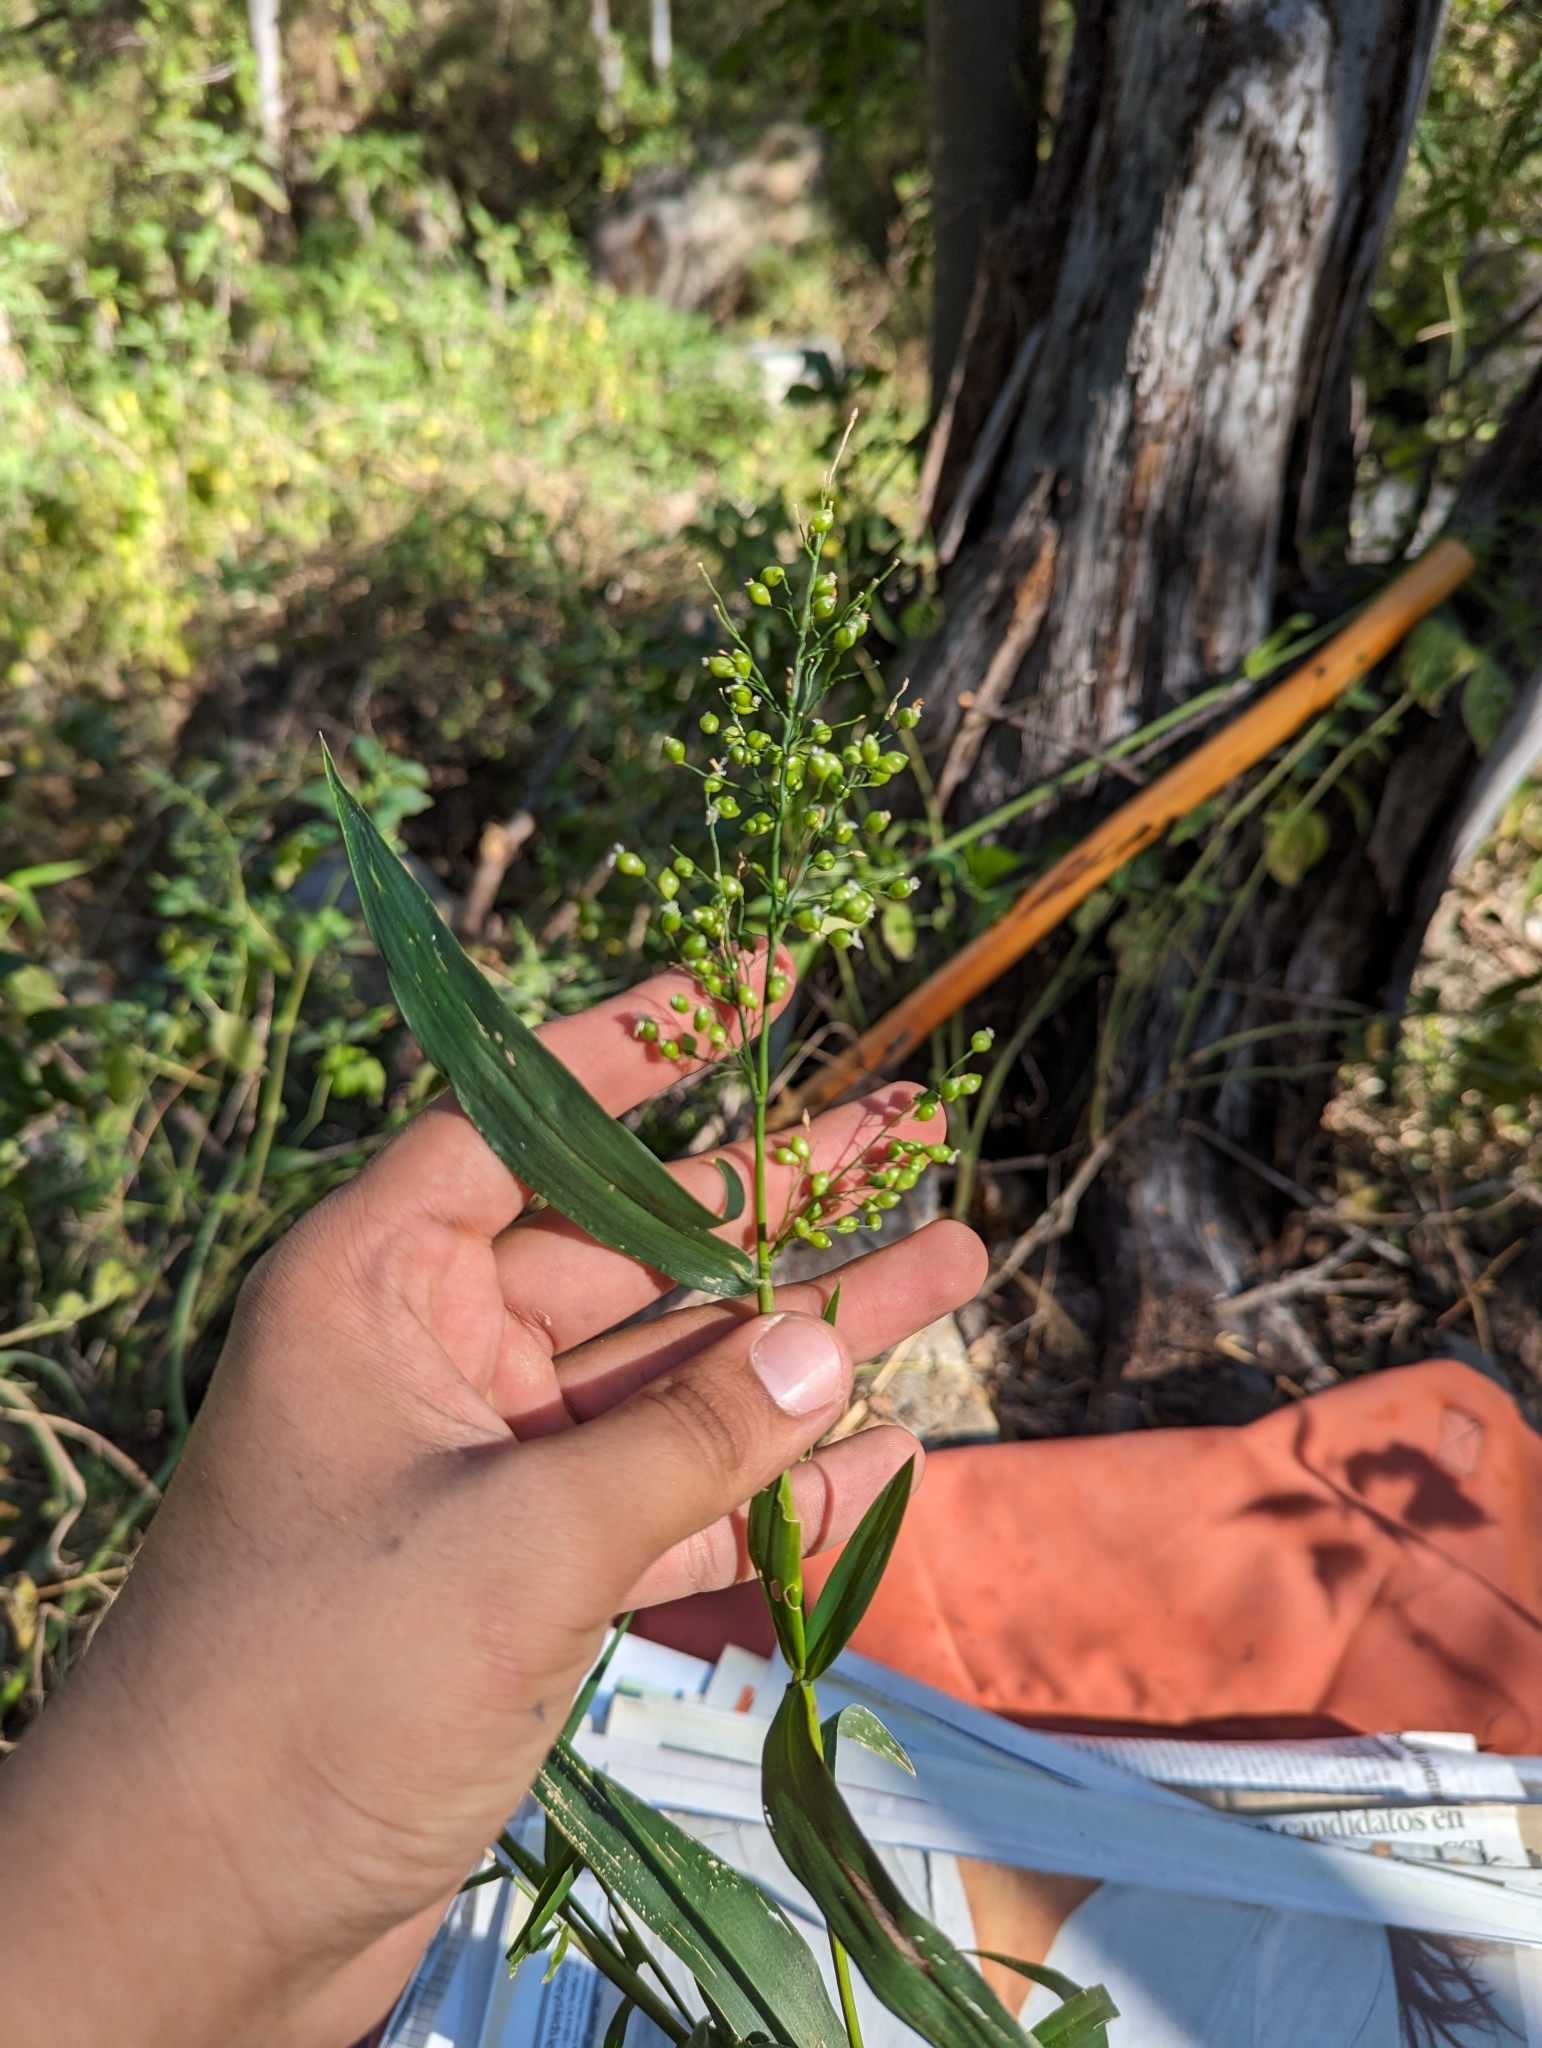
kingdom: Plantae
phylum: Tracheophyta
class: Liliopsida
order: Poales
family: Poaceae
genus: Lasiacis
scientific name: Lasiacis divaricata
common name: Smallcane
